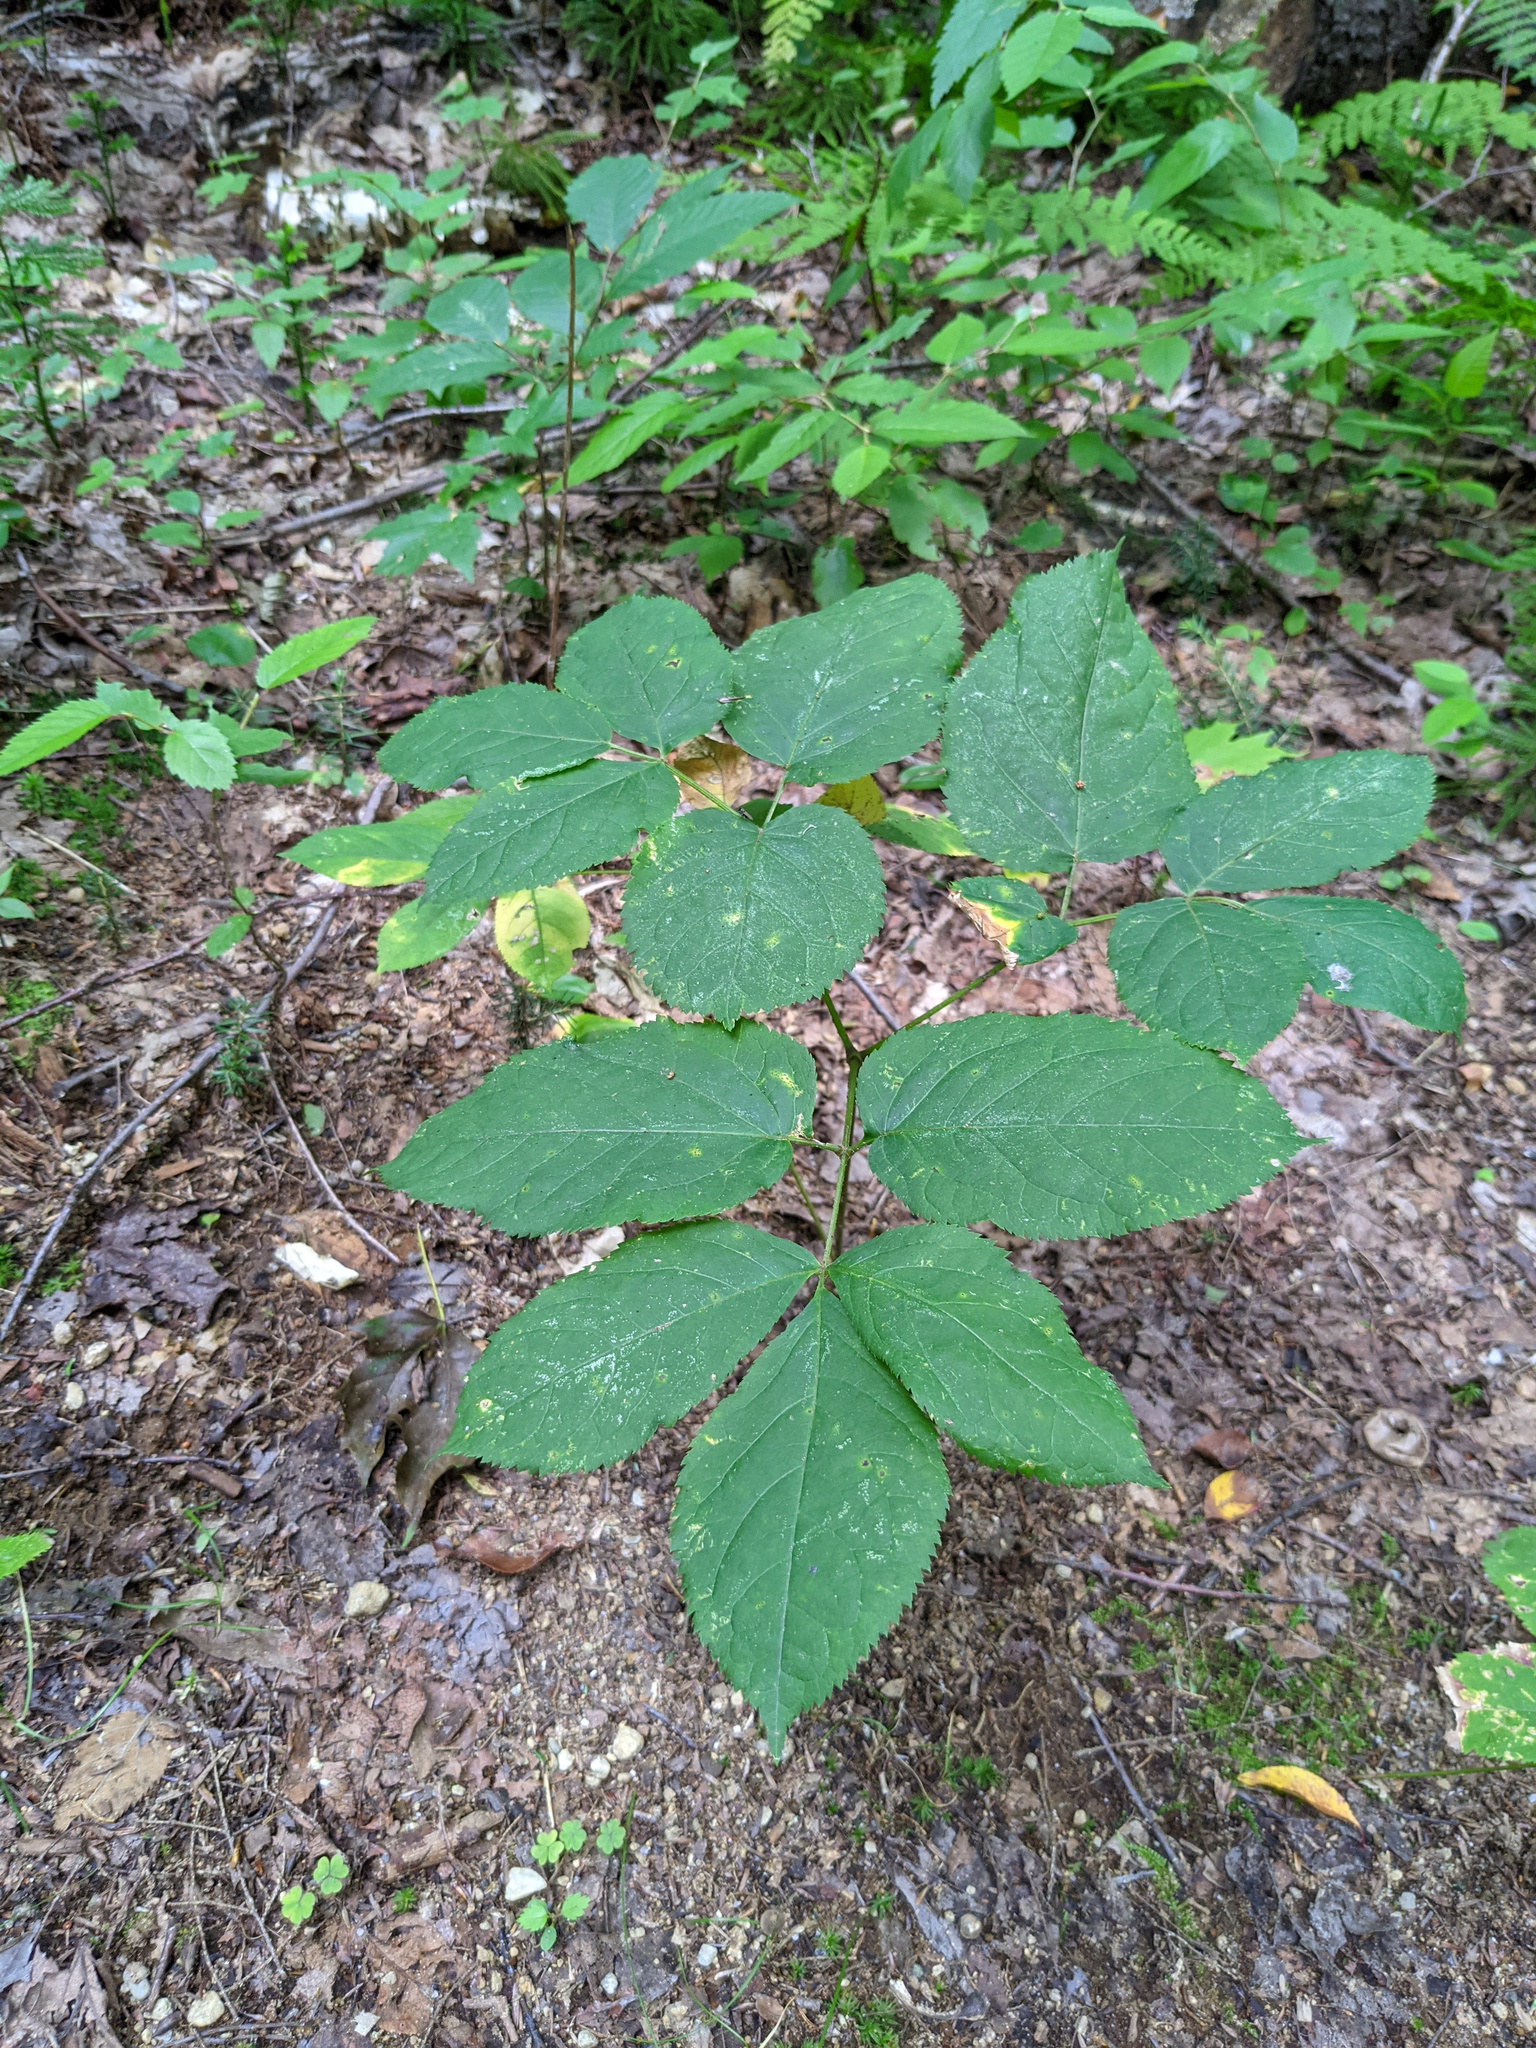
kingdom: Plantae
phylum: Tracheophyta
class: Magnoliopsida
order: Apiales
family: Araliaceae
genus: Aralia
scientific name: Aralia nudicaulis
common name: Wild sarsaparilla
